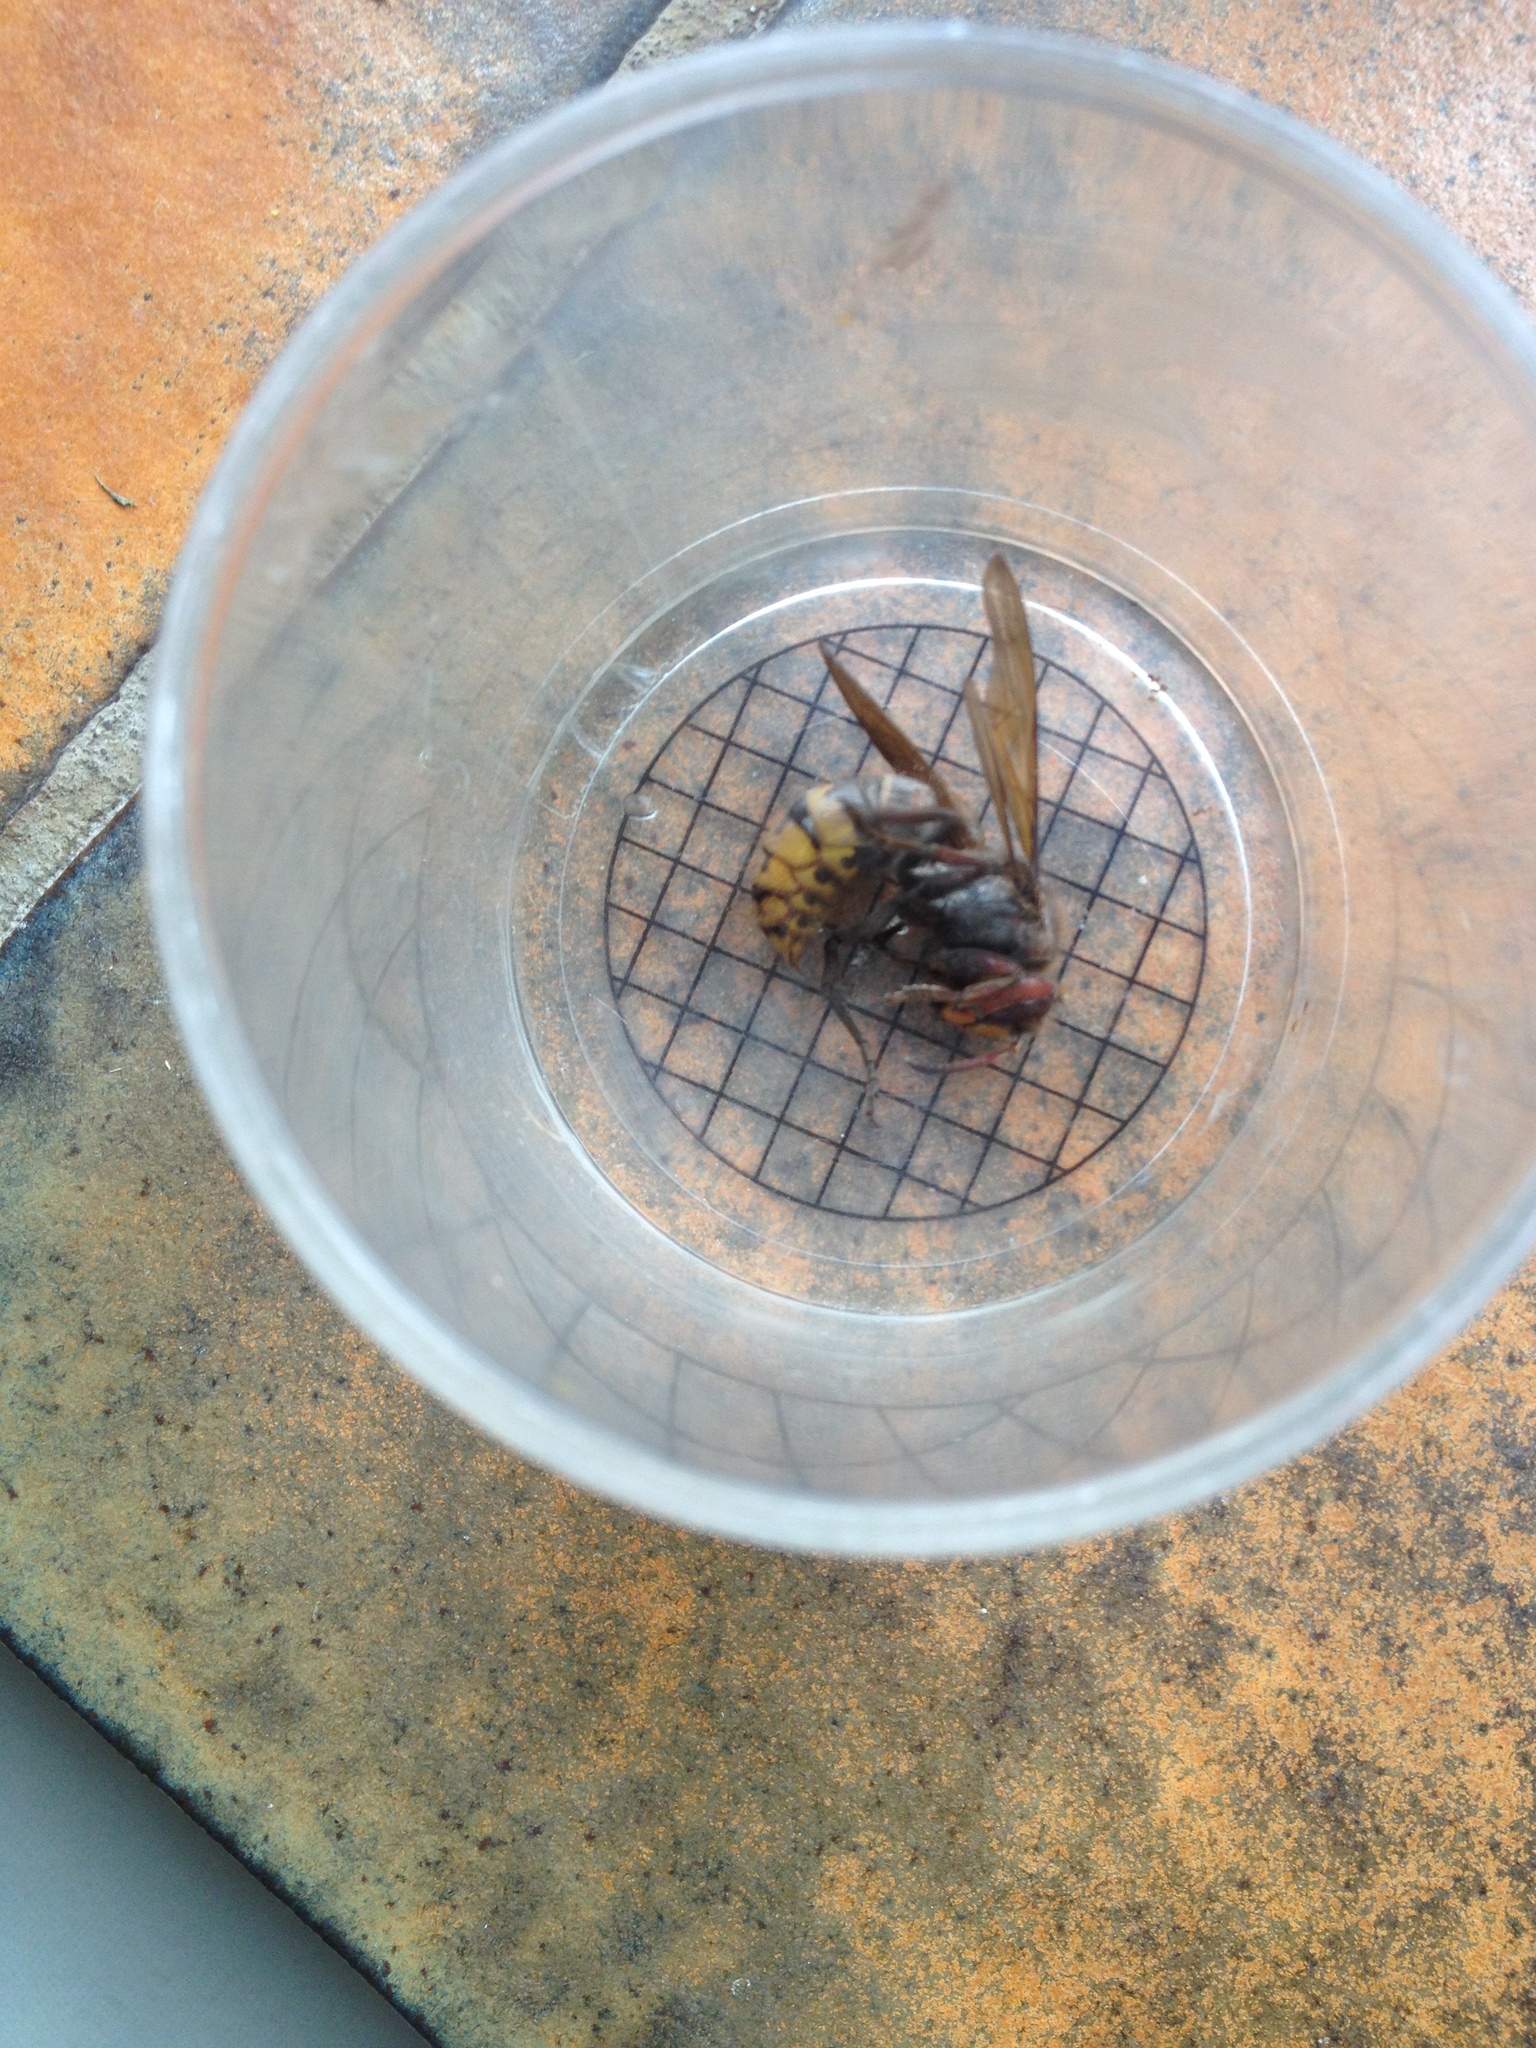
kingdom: Animalia
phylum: Arthropoda
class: Insecta
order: Hymenoptera
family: Vespidae
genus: Vespa
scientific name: Vespa crabro
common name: Hornet
